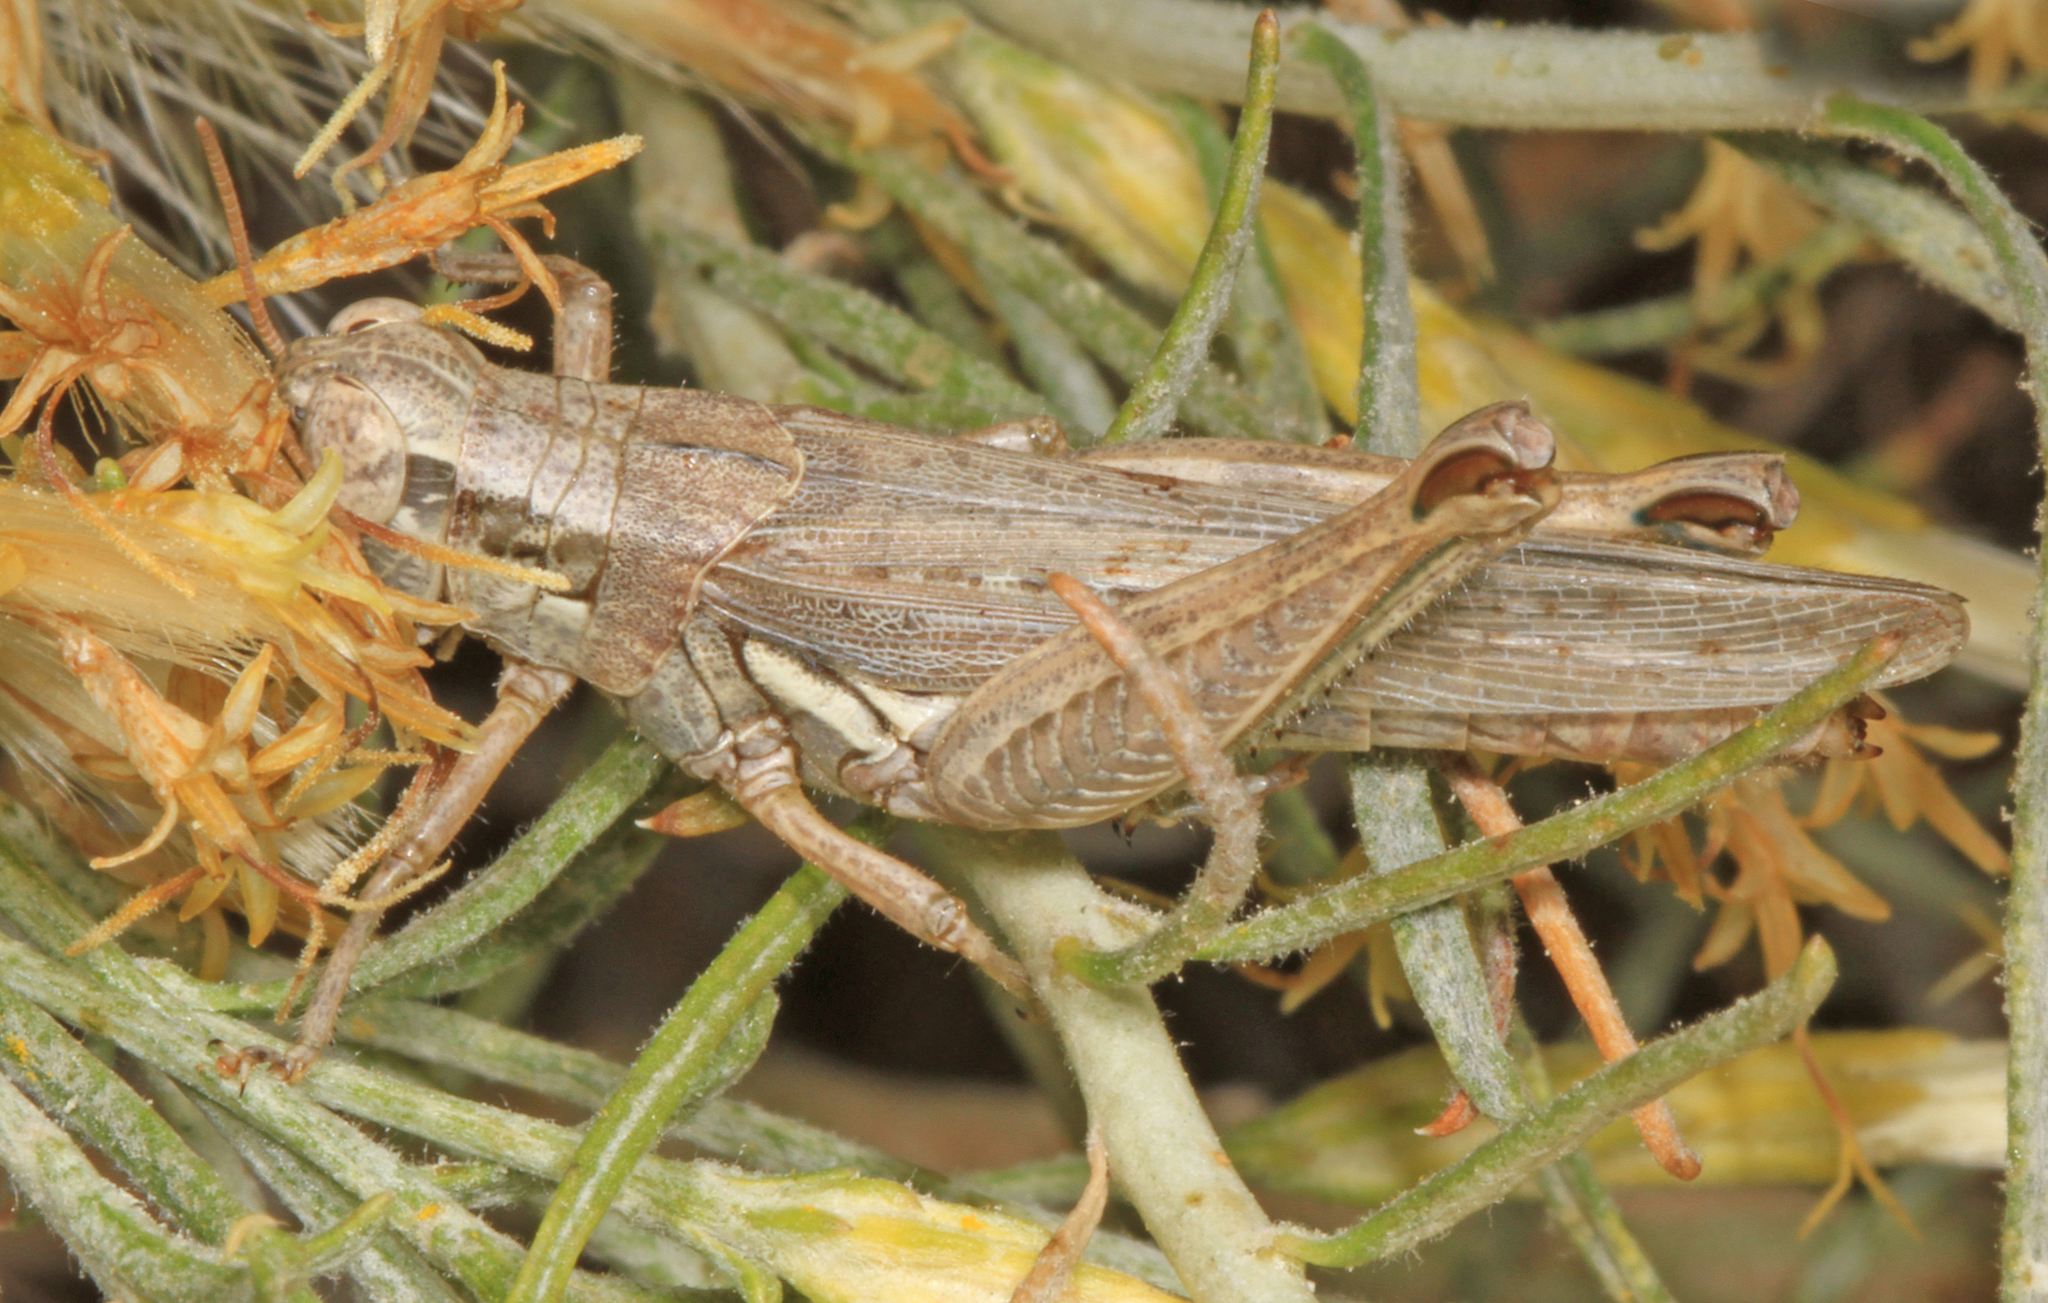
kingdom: Animalia
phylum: Arthropoda
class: Insecta
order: Orthoptera
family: Acrididae
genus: Melanoplus
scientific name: Melanoplus cinereus
